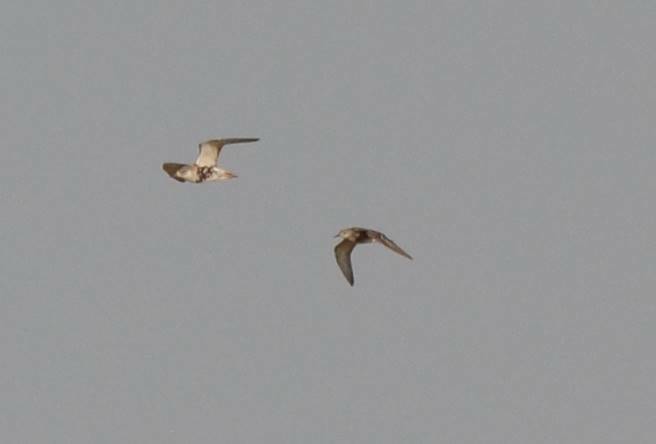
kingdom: Animalia
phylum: Chordata
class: Aves
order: Charadriiformes
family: Scolopacidae
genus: Calidris
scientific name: Calidris pugnax
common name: Ruff
